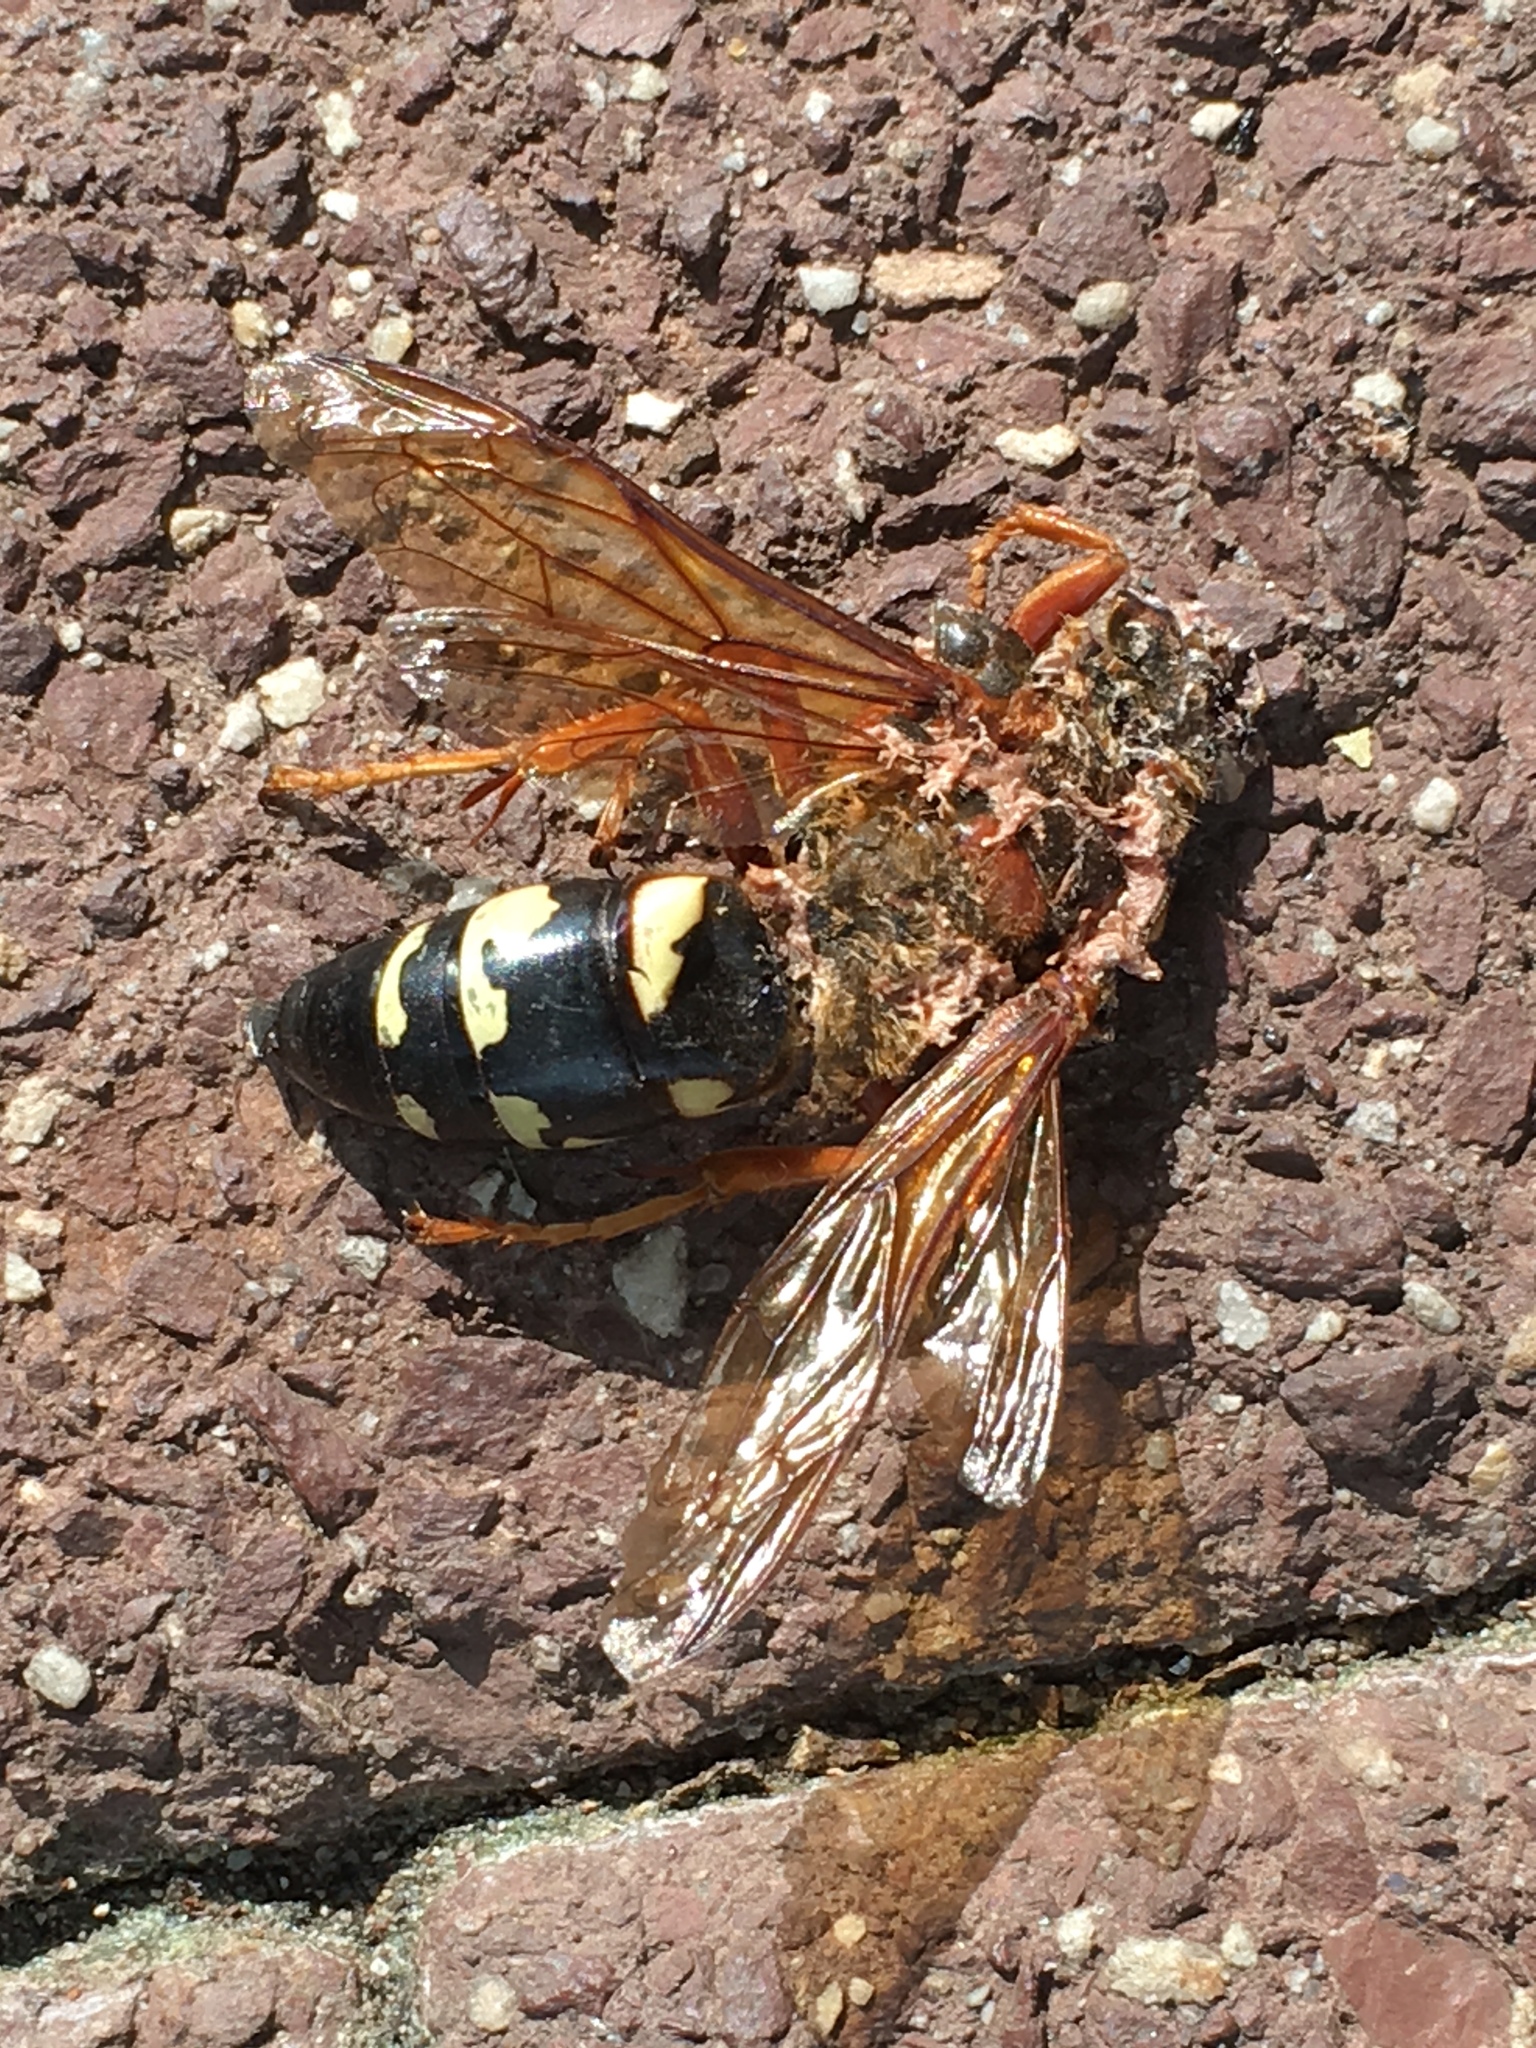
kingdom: Animalia
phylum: Arthropoda
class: Insecta
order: Hymenoptera
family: Crabronidae
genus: Sphecius
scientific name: Sphecius speciosus
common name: Cicada killer
